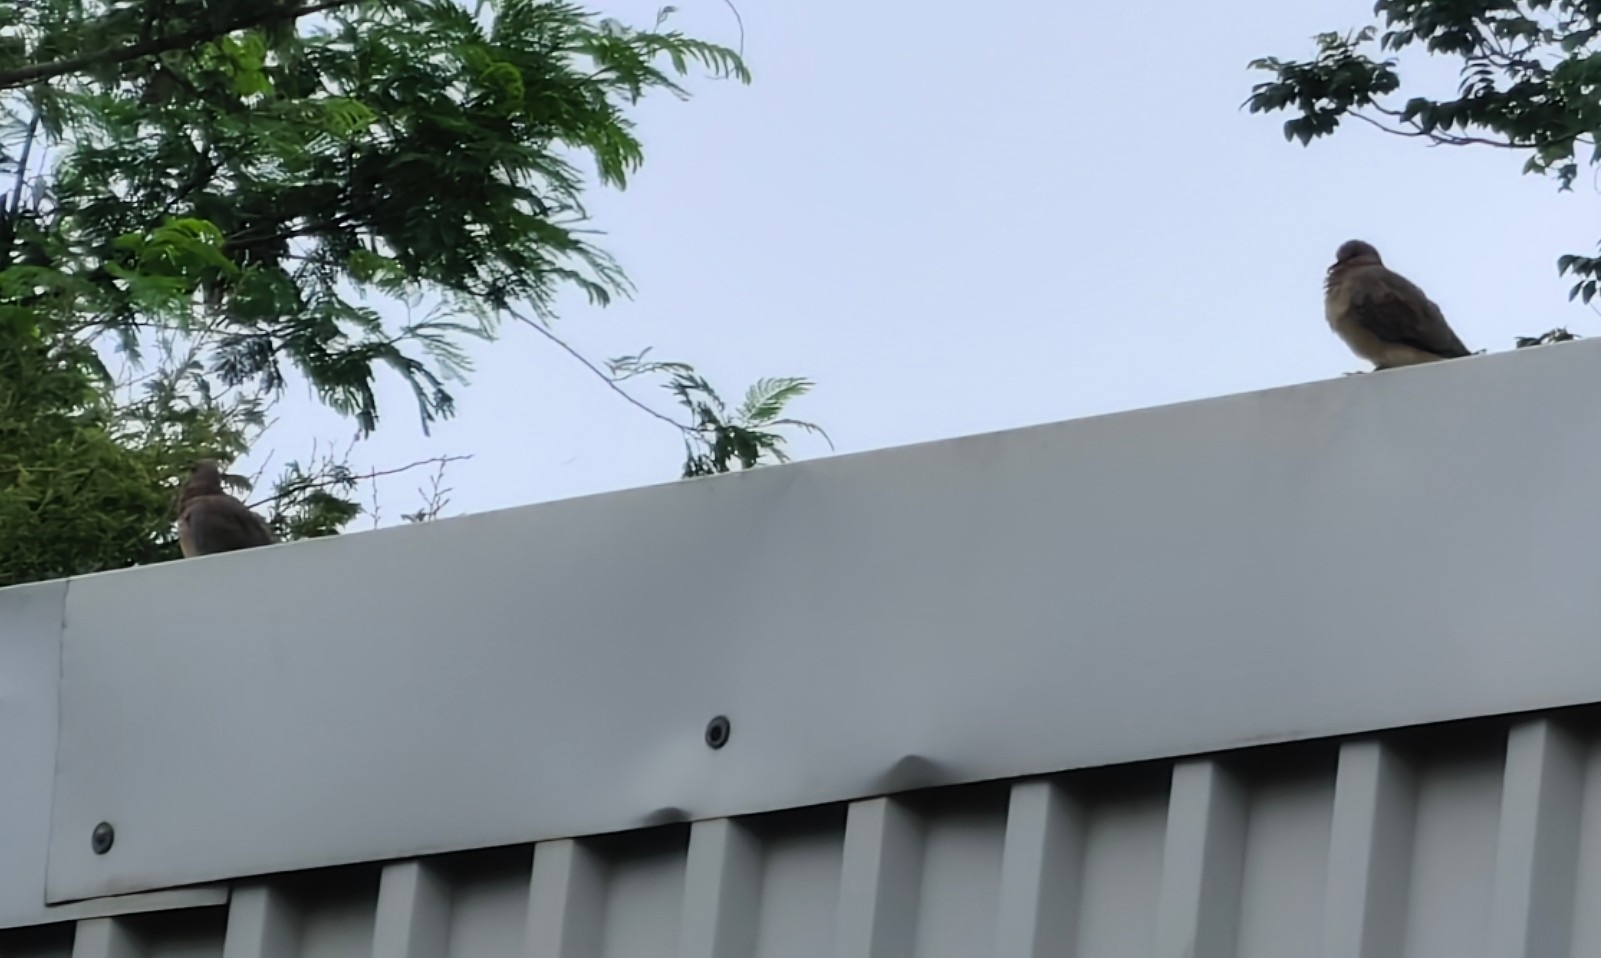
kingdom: Animalia
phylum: Chordata
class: Aves
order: Columbiformes
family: Columbidae
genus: Spilopelia
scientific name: Spilopelia senegalensis
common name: Laughing dove
